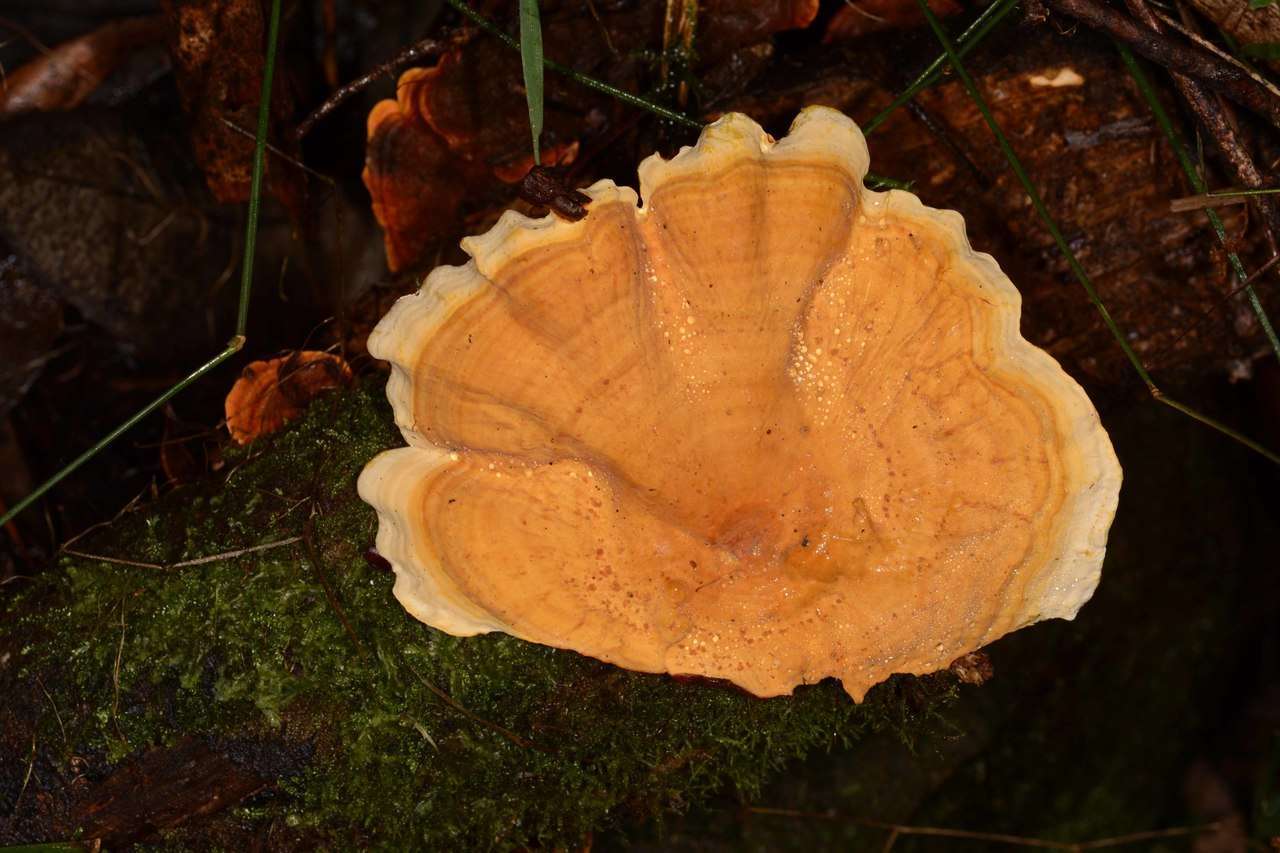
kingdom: Fungi
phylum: Basidiomycota
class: Agaricomycetes
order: Russulales
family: Stereaceae
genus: Stereum
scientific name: Stereum versicolor
